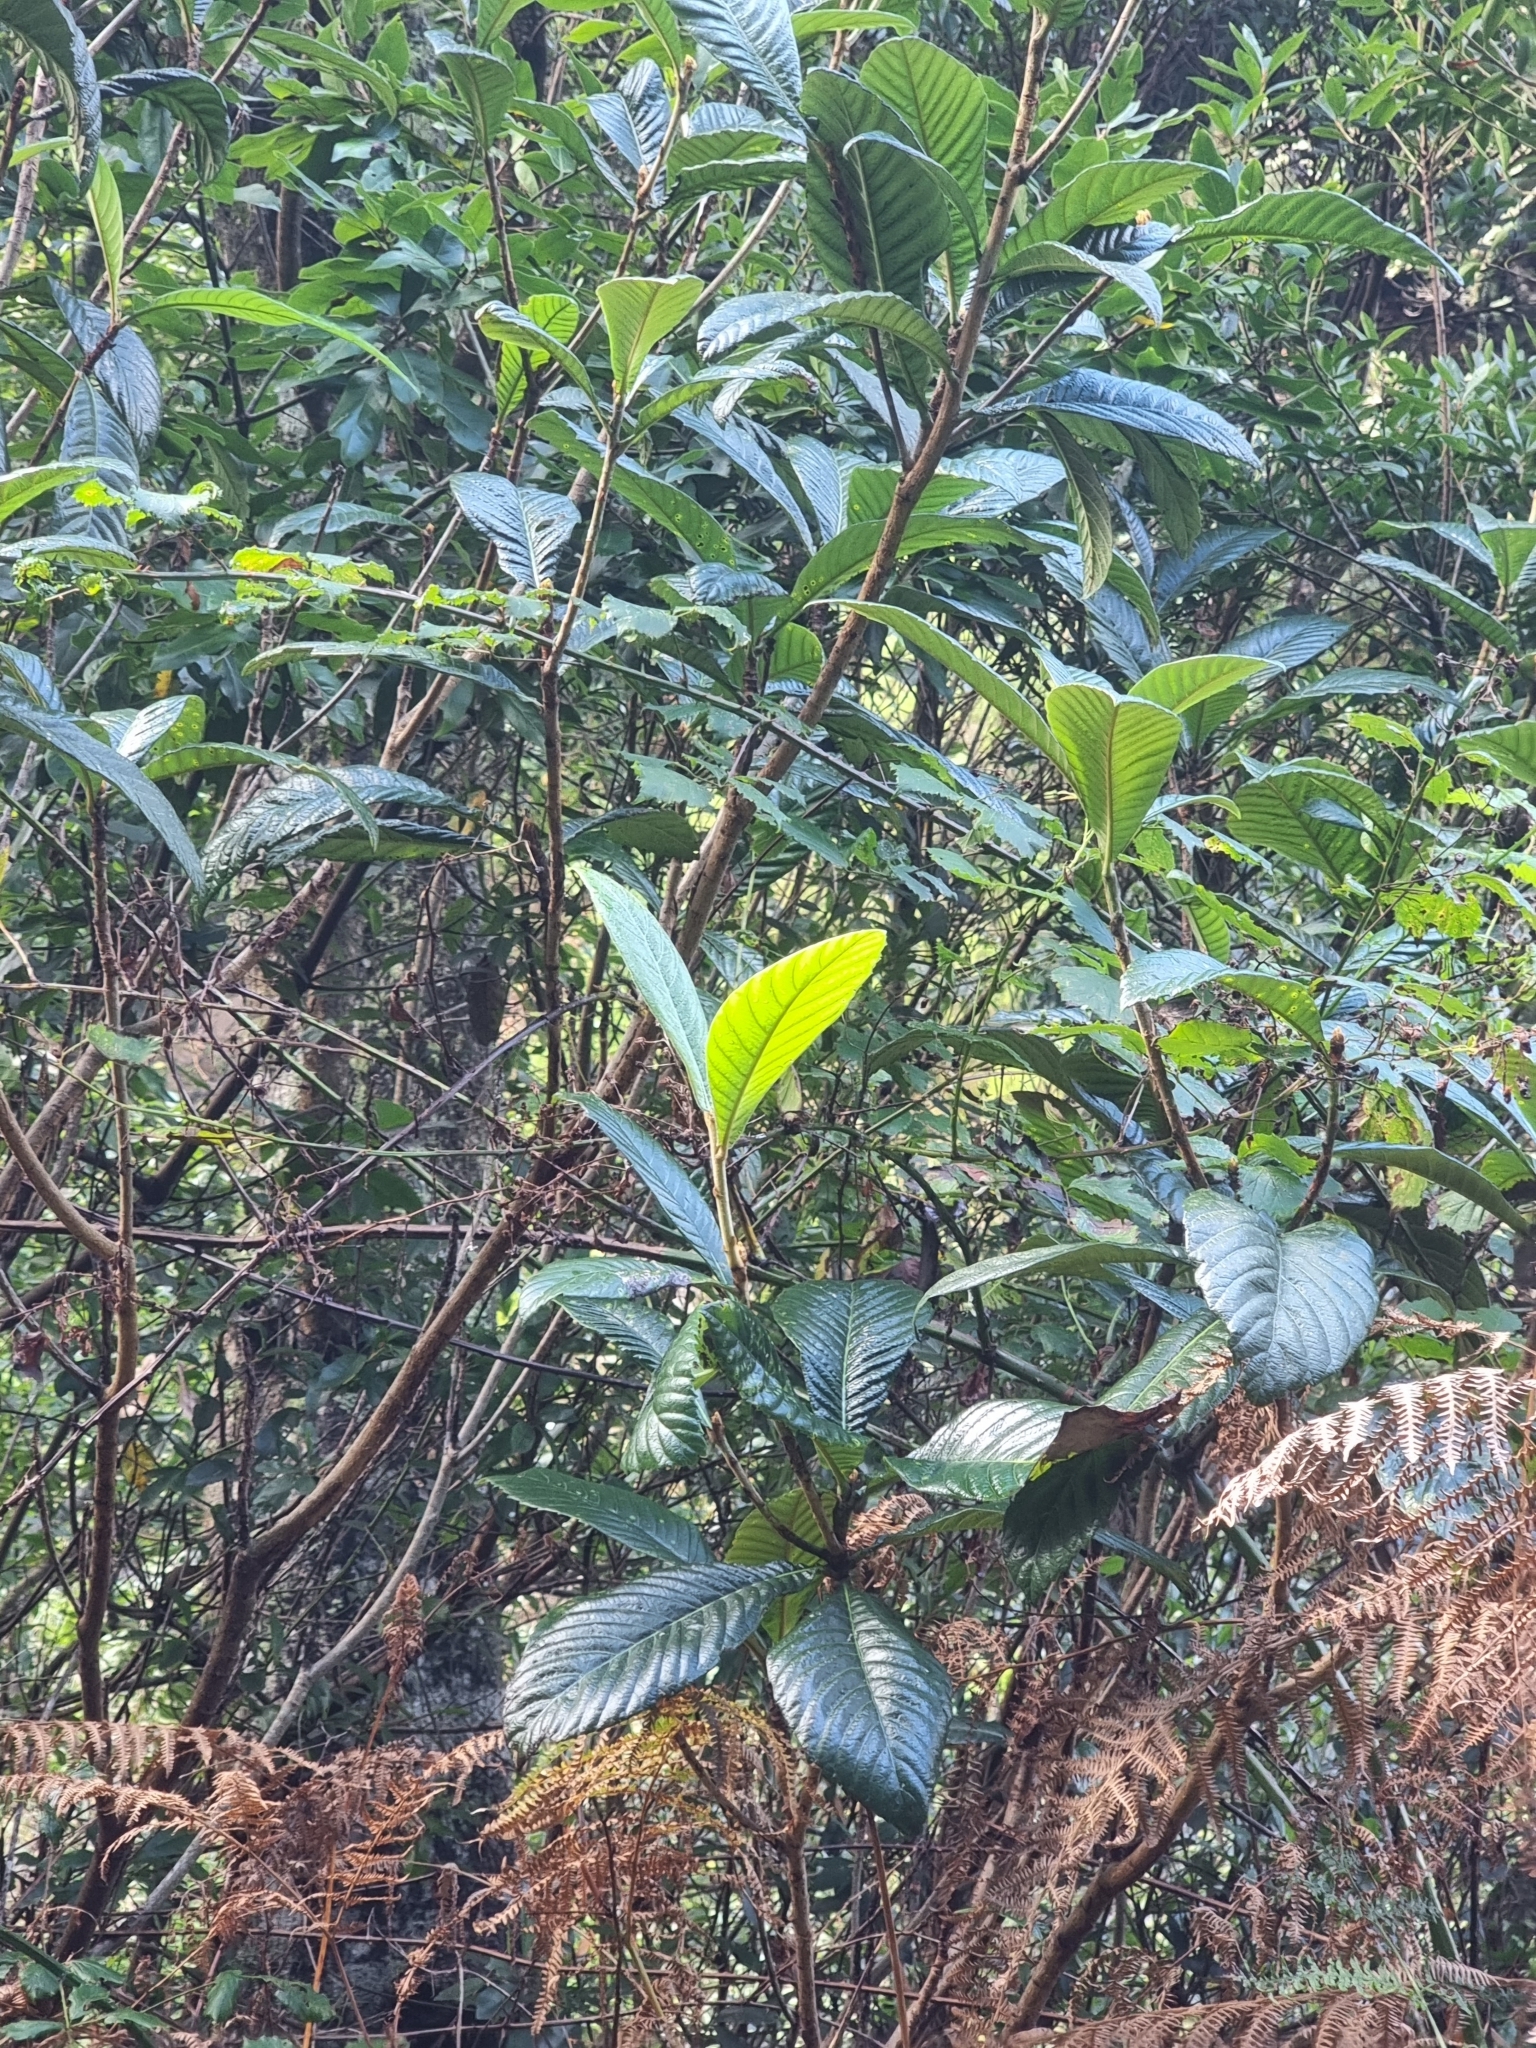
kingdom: Plantae
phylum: Tracheophyta
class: Magnoliopsida
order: Rosales
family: Rosaceae
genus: Rhaphiolepis
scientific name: Rhaphiolepis bibas
